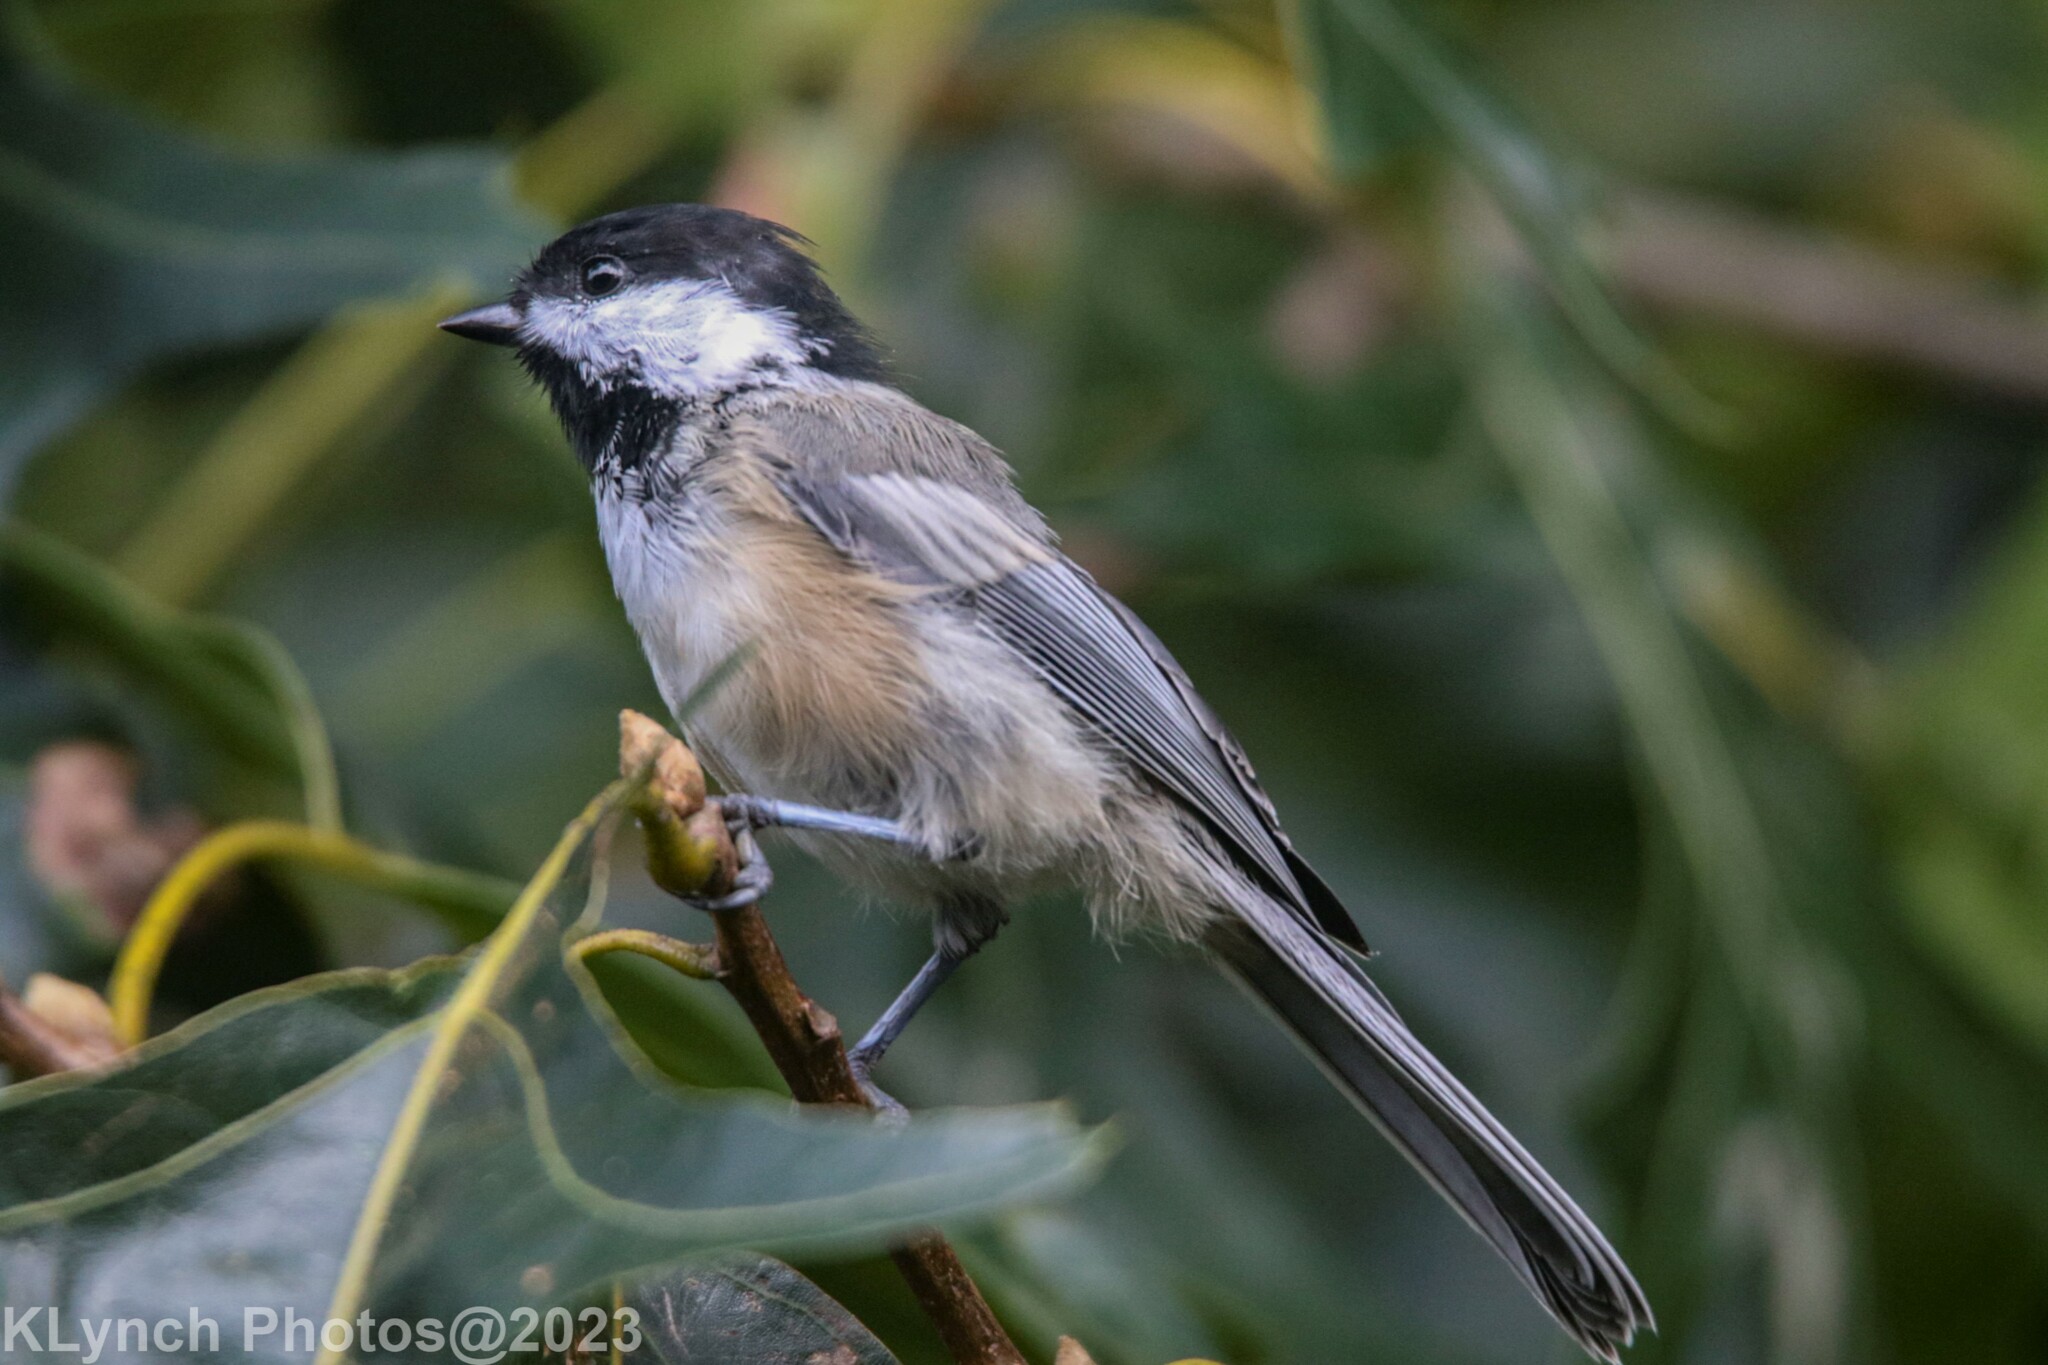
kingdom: Animalia
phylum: Chordata
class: Aves
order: Passeriformes
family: Paridae
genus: Poecile
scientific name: Poecile atricapillus
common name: Black-capped chickadee
